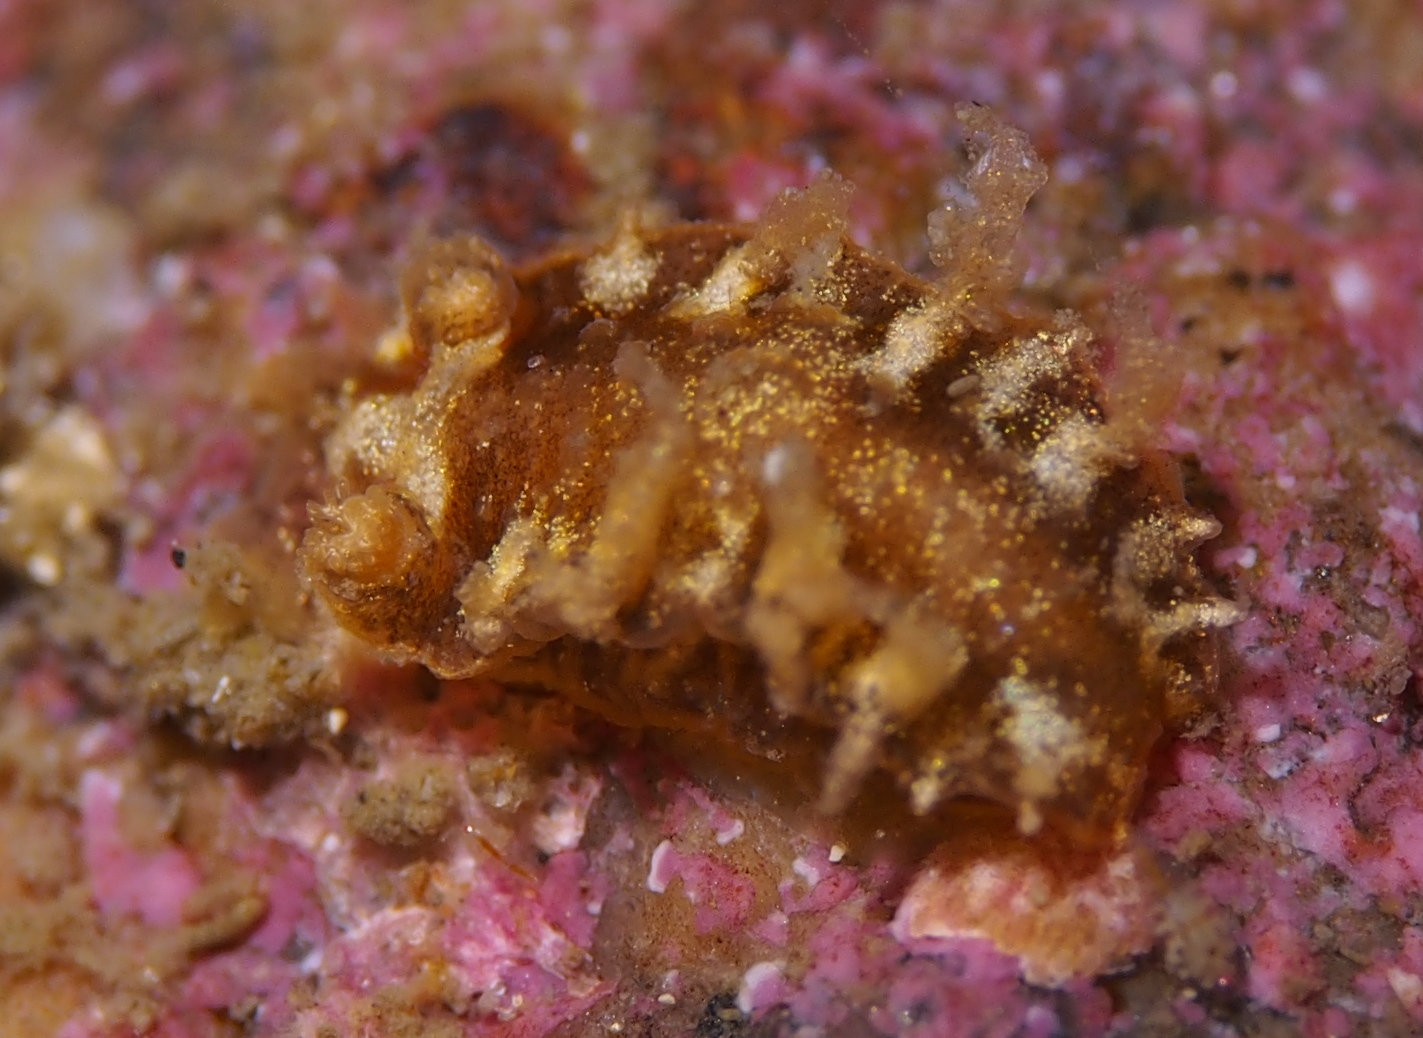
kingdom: Animalia
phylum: Mollusca
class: Gastropoda
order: Nudibranchia
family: Tritoniidae
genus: Duvaucelia
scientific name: Duvaucelia plebeia
